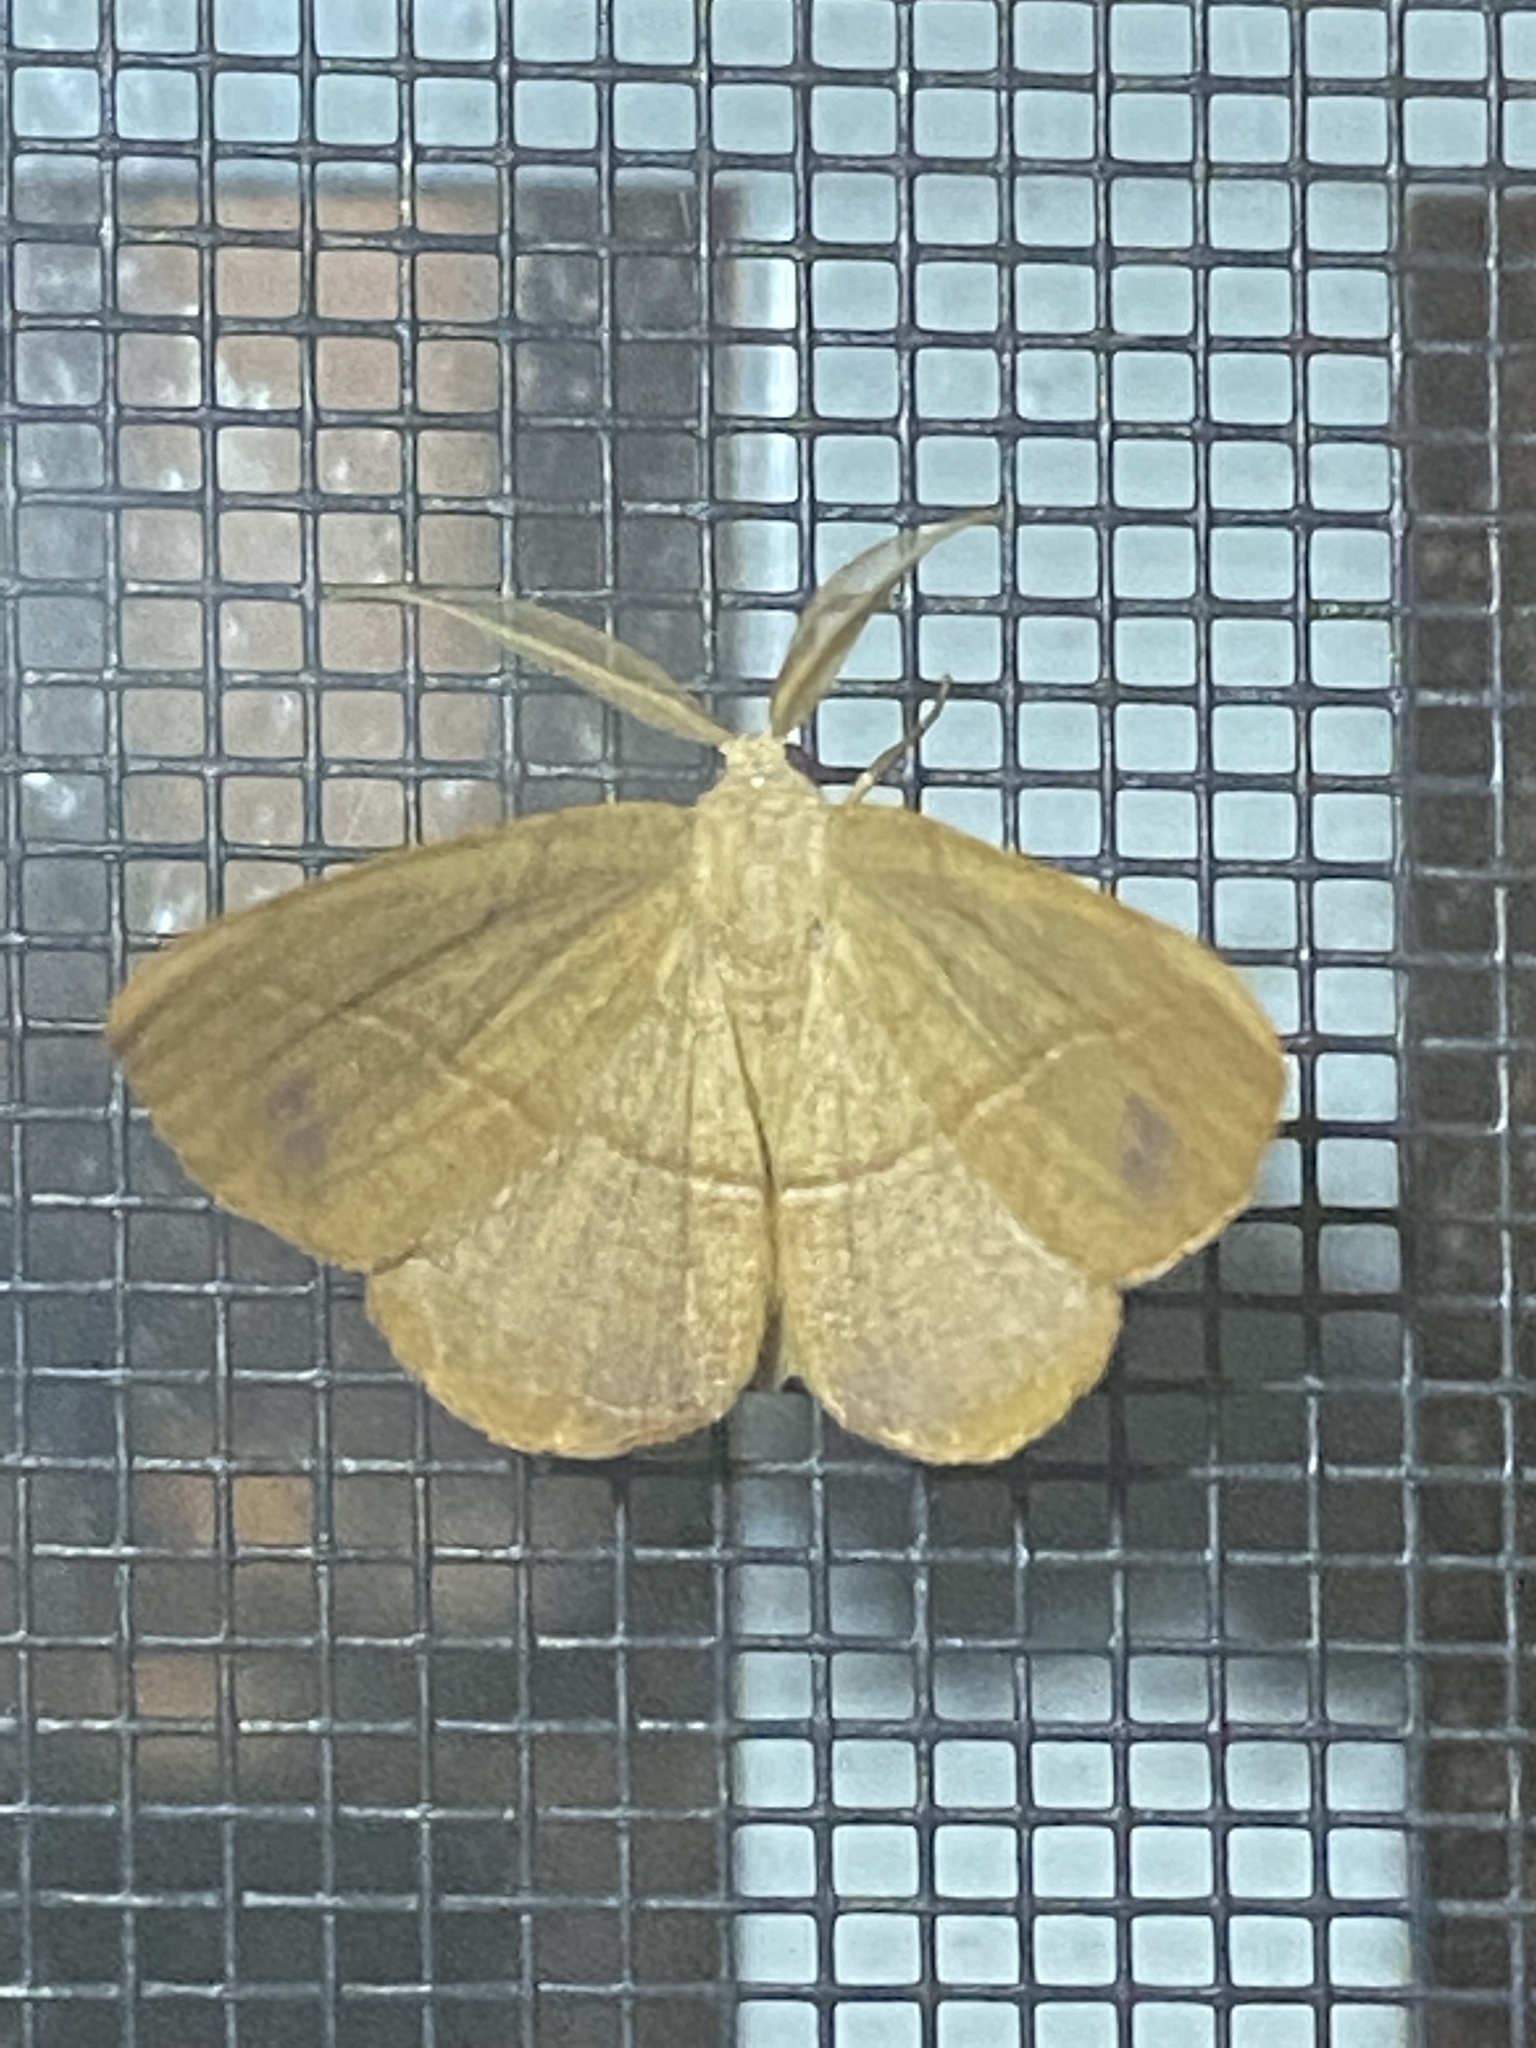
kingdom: Animalia
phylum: Arthropoda
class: Insecta
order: Lepidoptera
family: Geometridae
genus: Patalene
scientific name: Patalene olyzonaria
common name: Juniper geometer moth
